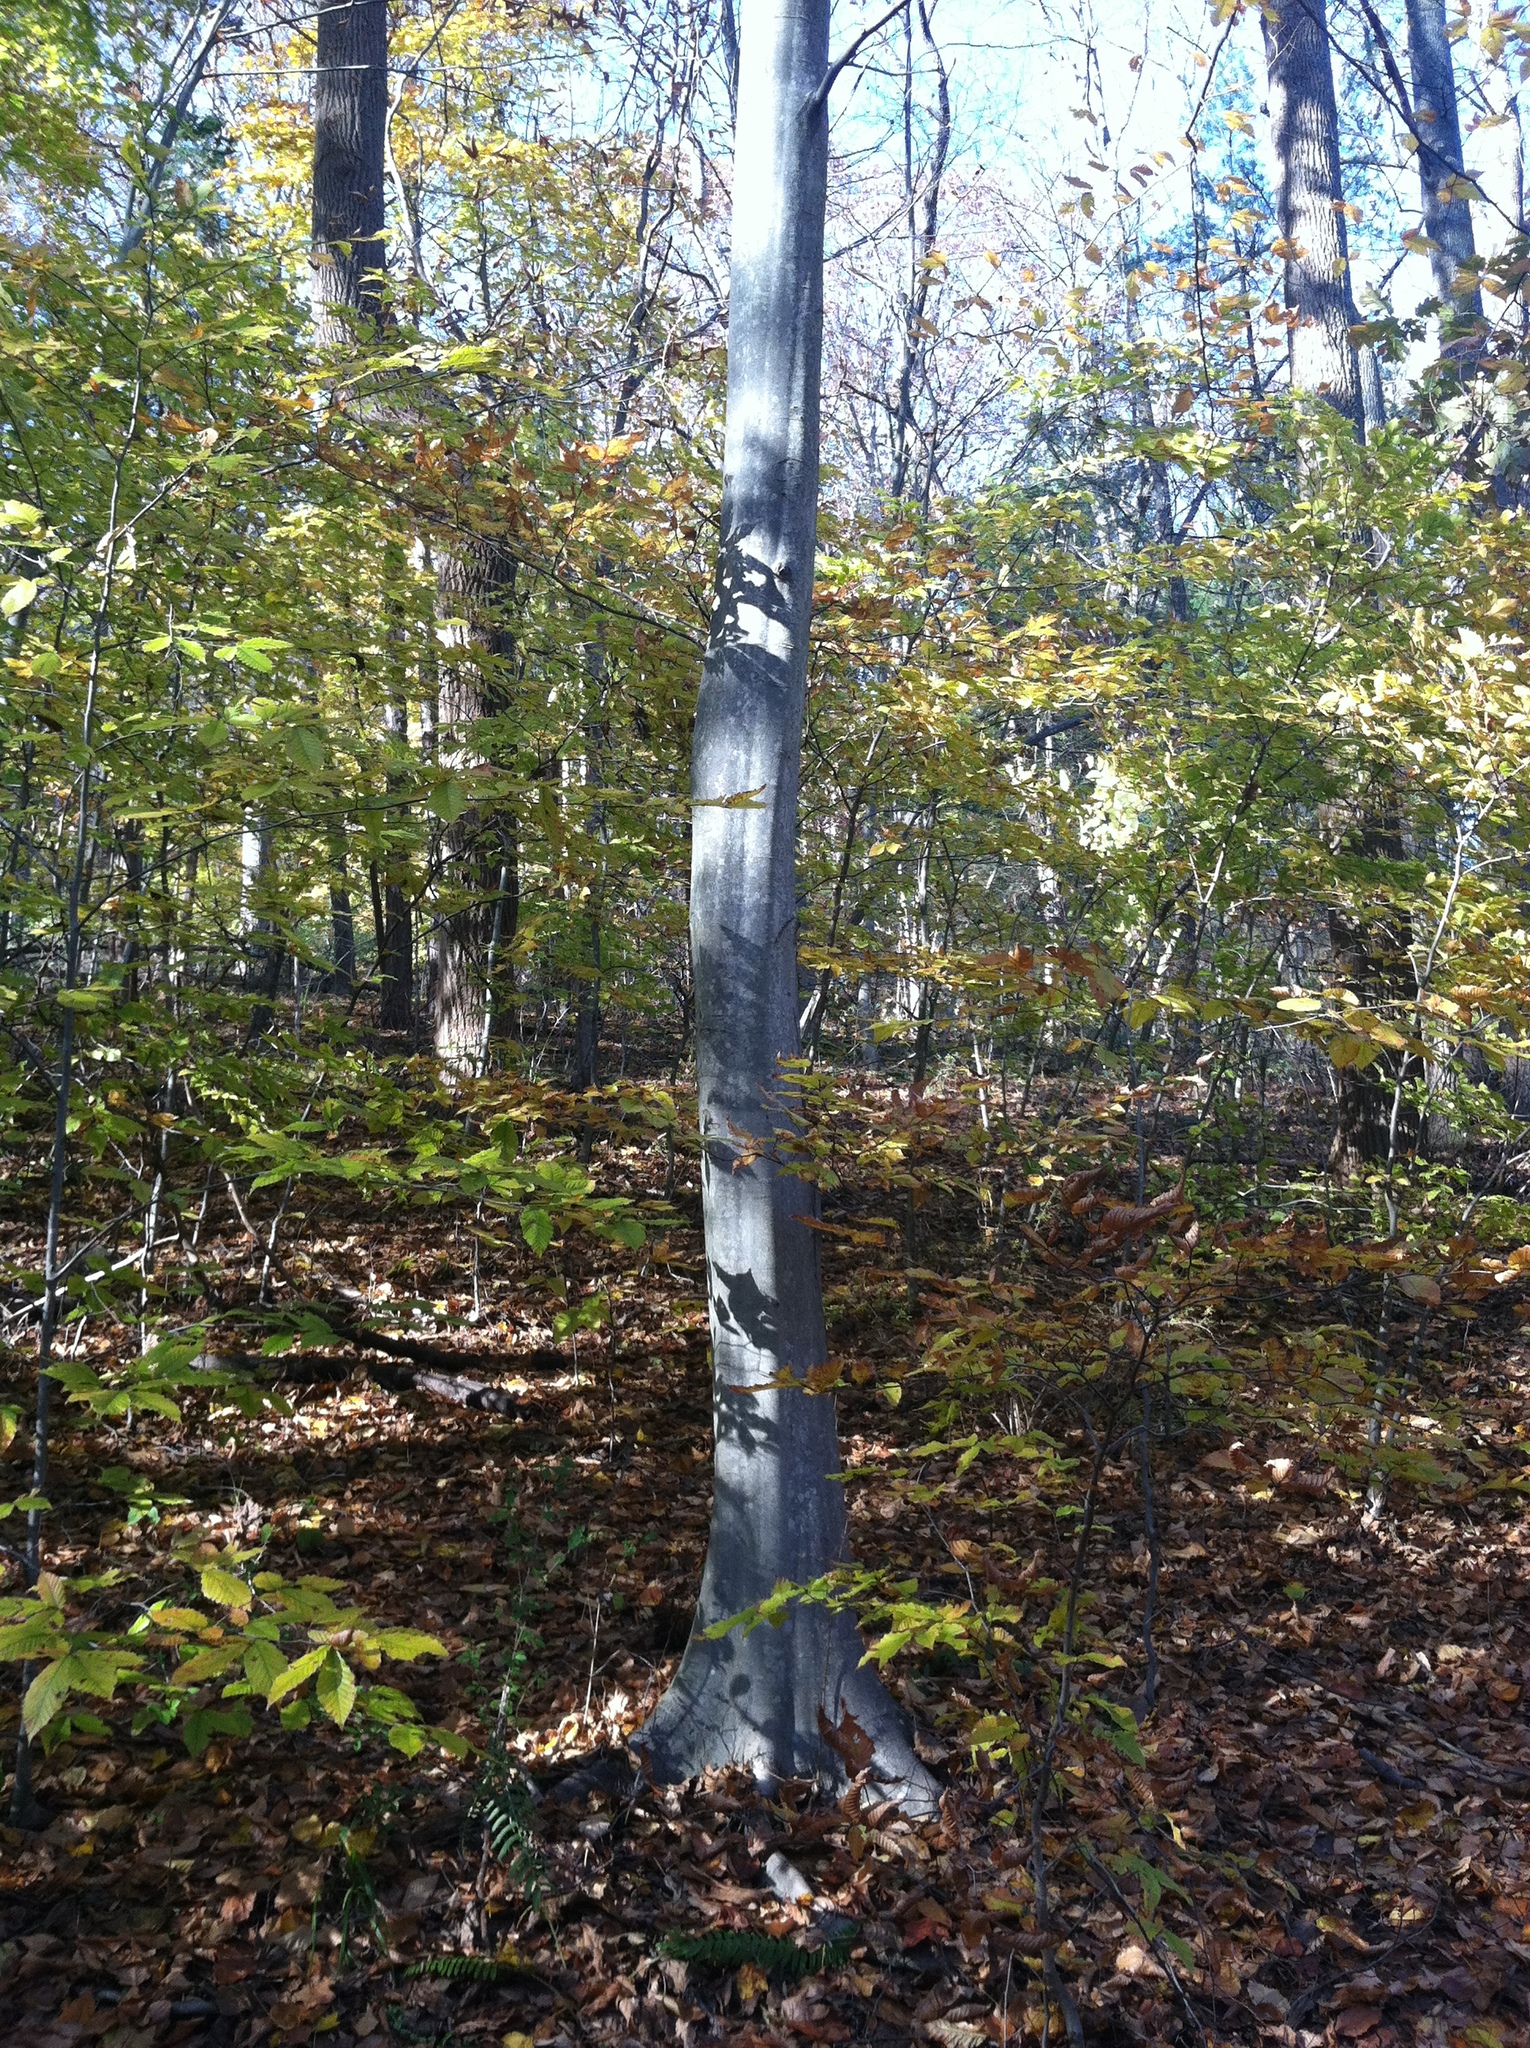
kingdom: Plantae
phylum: Tracheophyta
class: Magnoliopsida
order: Fagales
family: Betulaceae
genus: Carpinus
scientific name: Carpinus caroliniana
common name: American hornbeam
